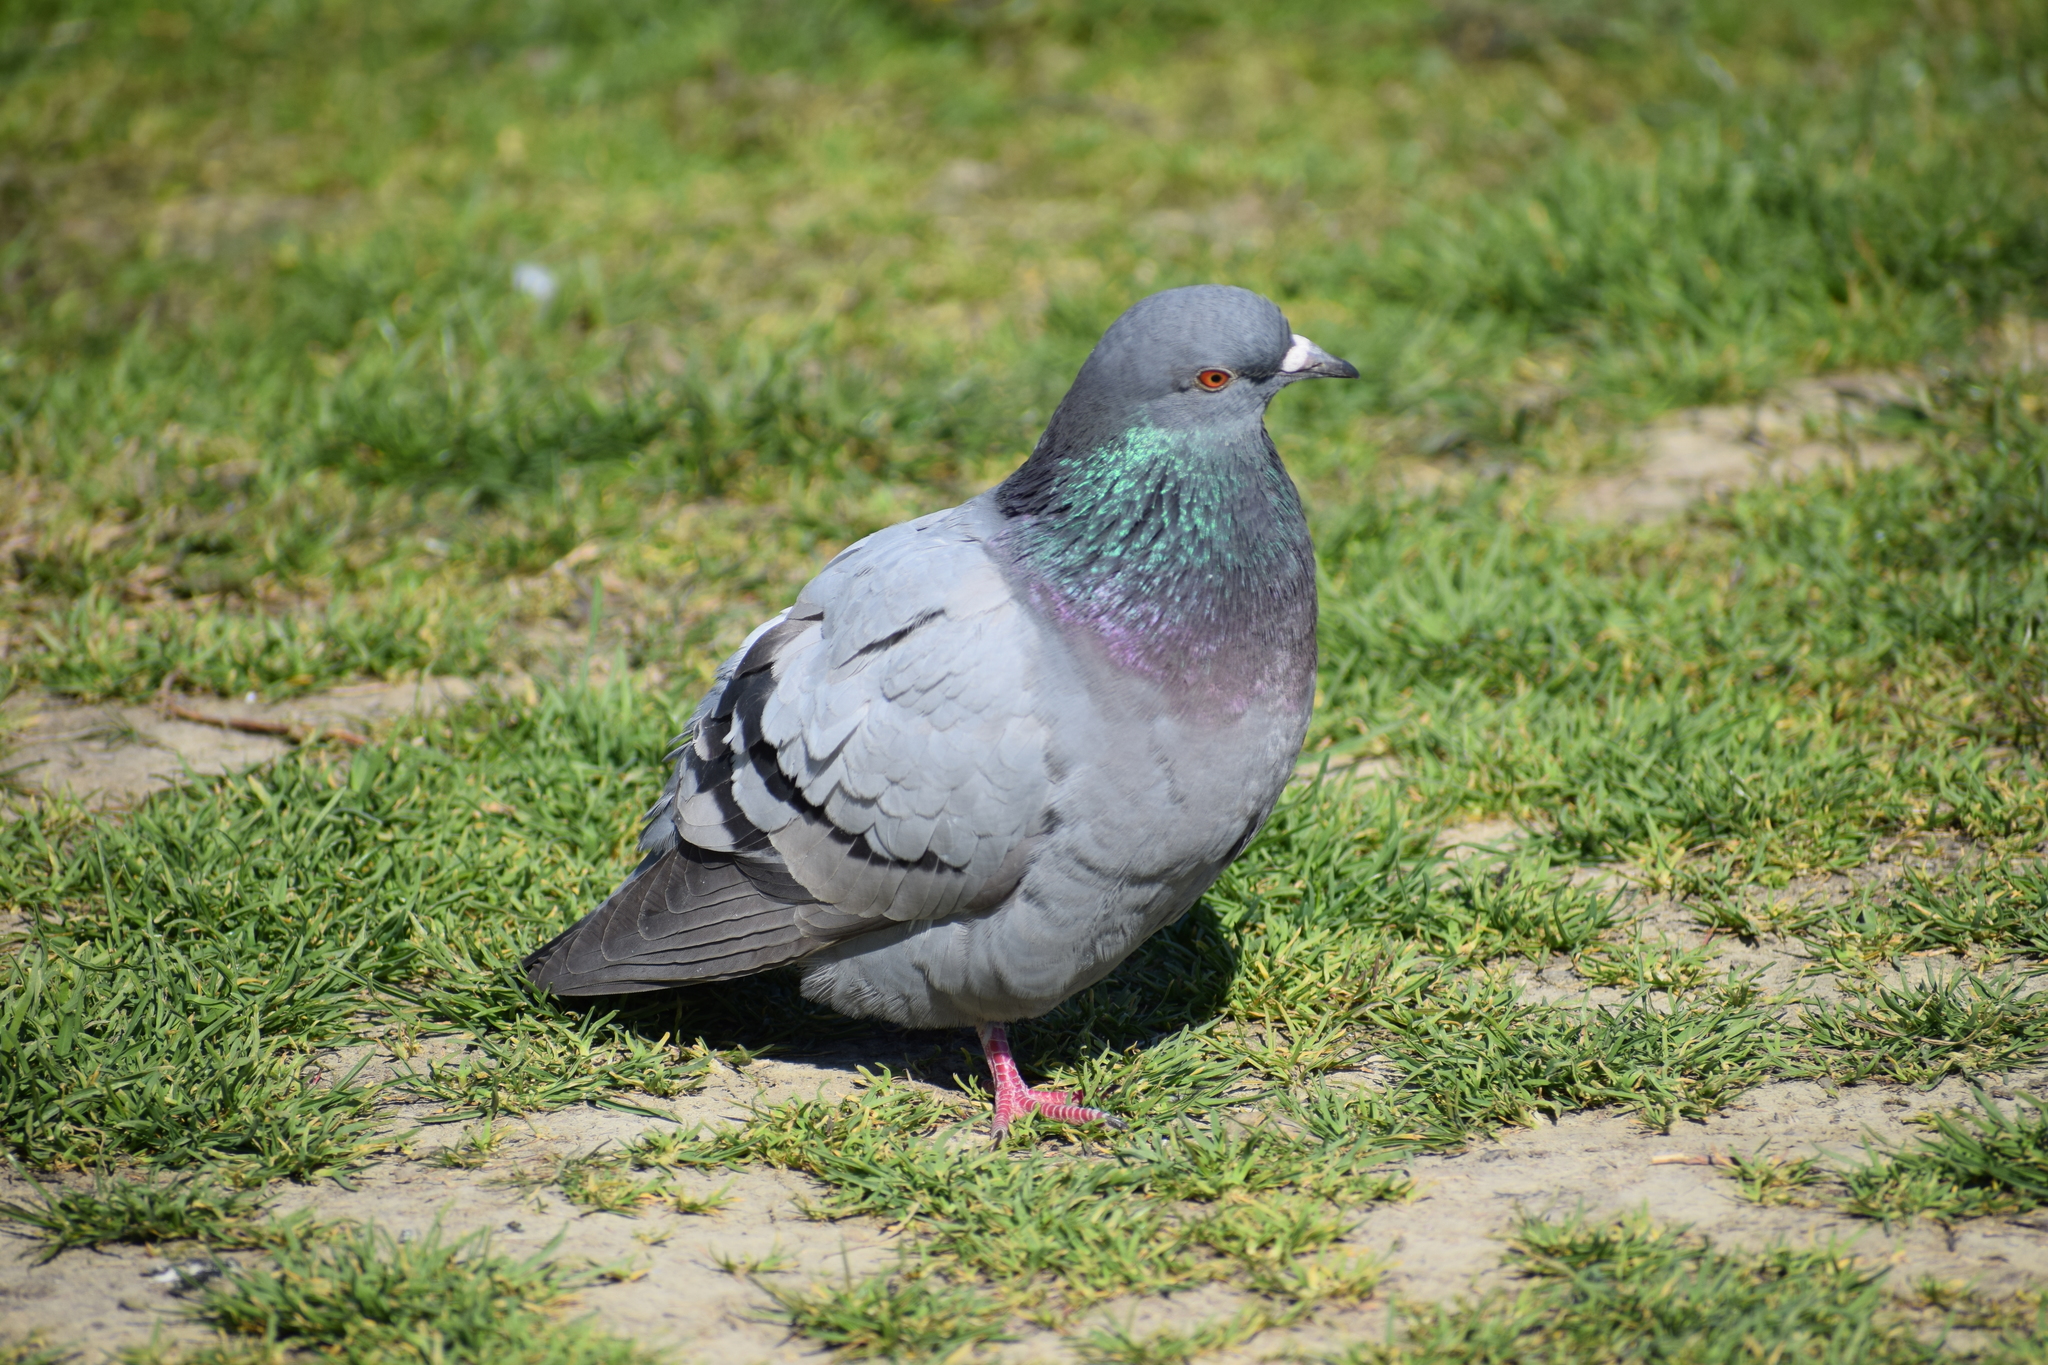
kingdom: Animalia
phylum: Chordata
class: Aves
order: Columbiformes
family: Columbidae
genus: Columba
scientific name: Columba livia
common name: Rock pigeon
